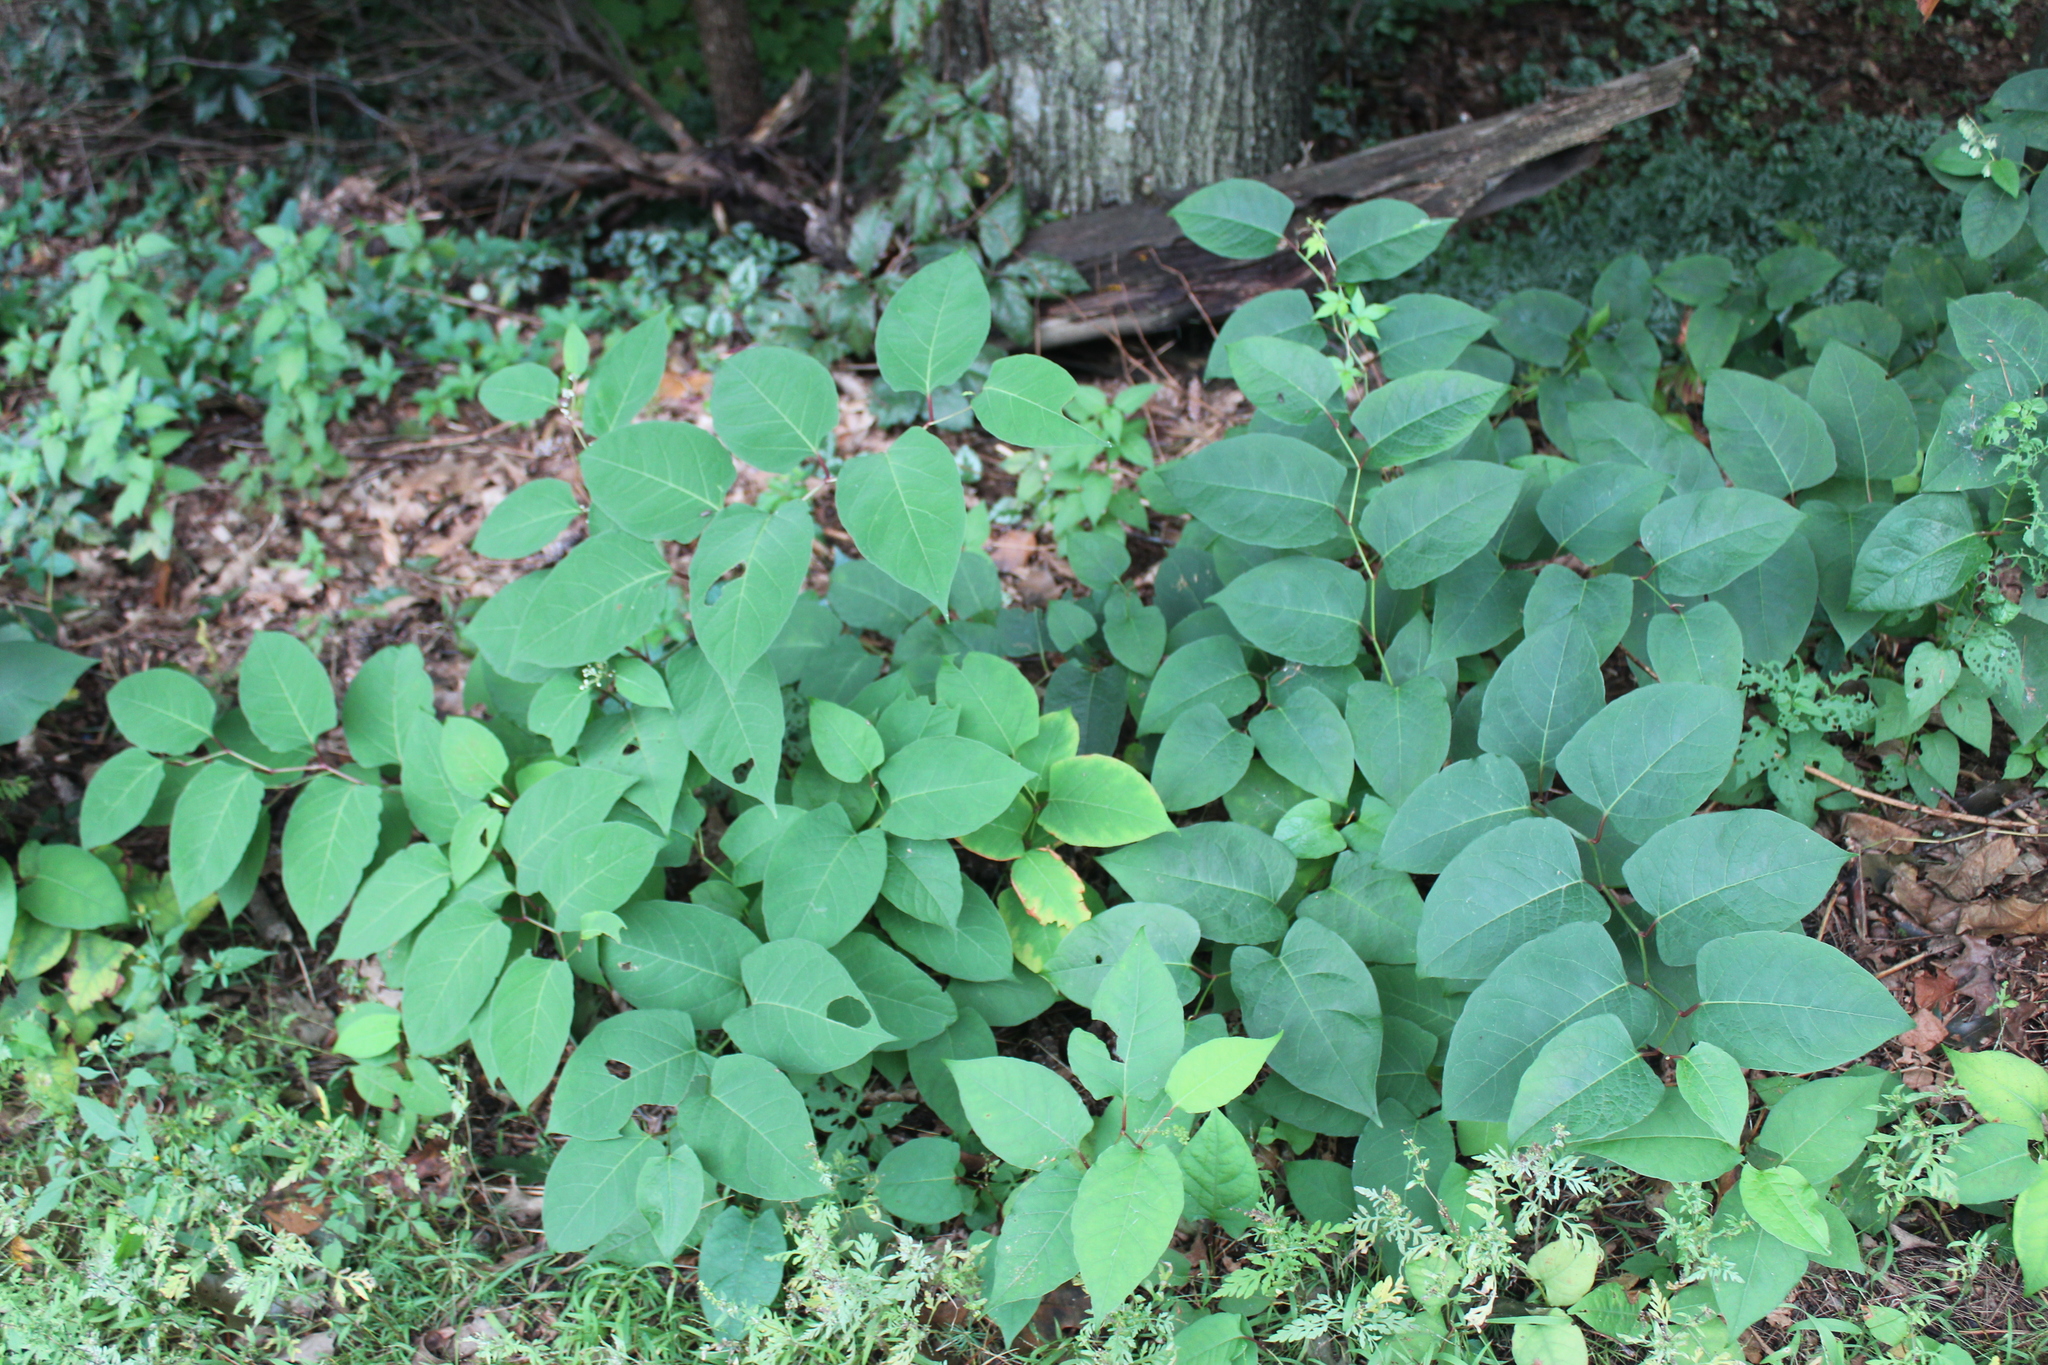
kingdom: Plantae
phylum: Tracheophyta
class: Magnoliopsida
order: Caryophyllales
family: Polygonaceae
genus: Reynoutria
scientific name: Reynoutria japonica
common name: Japanese knotweed
